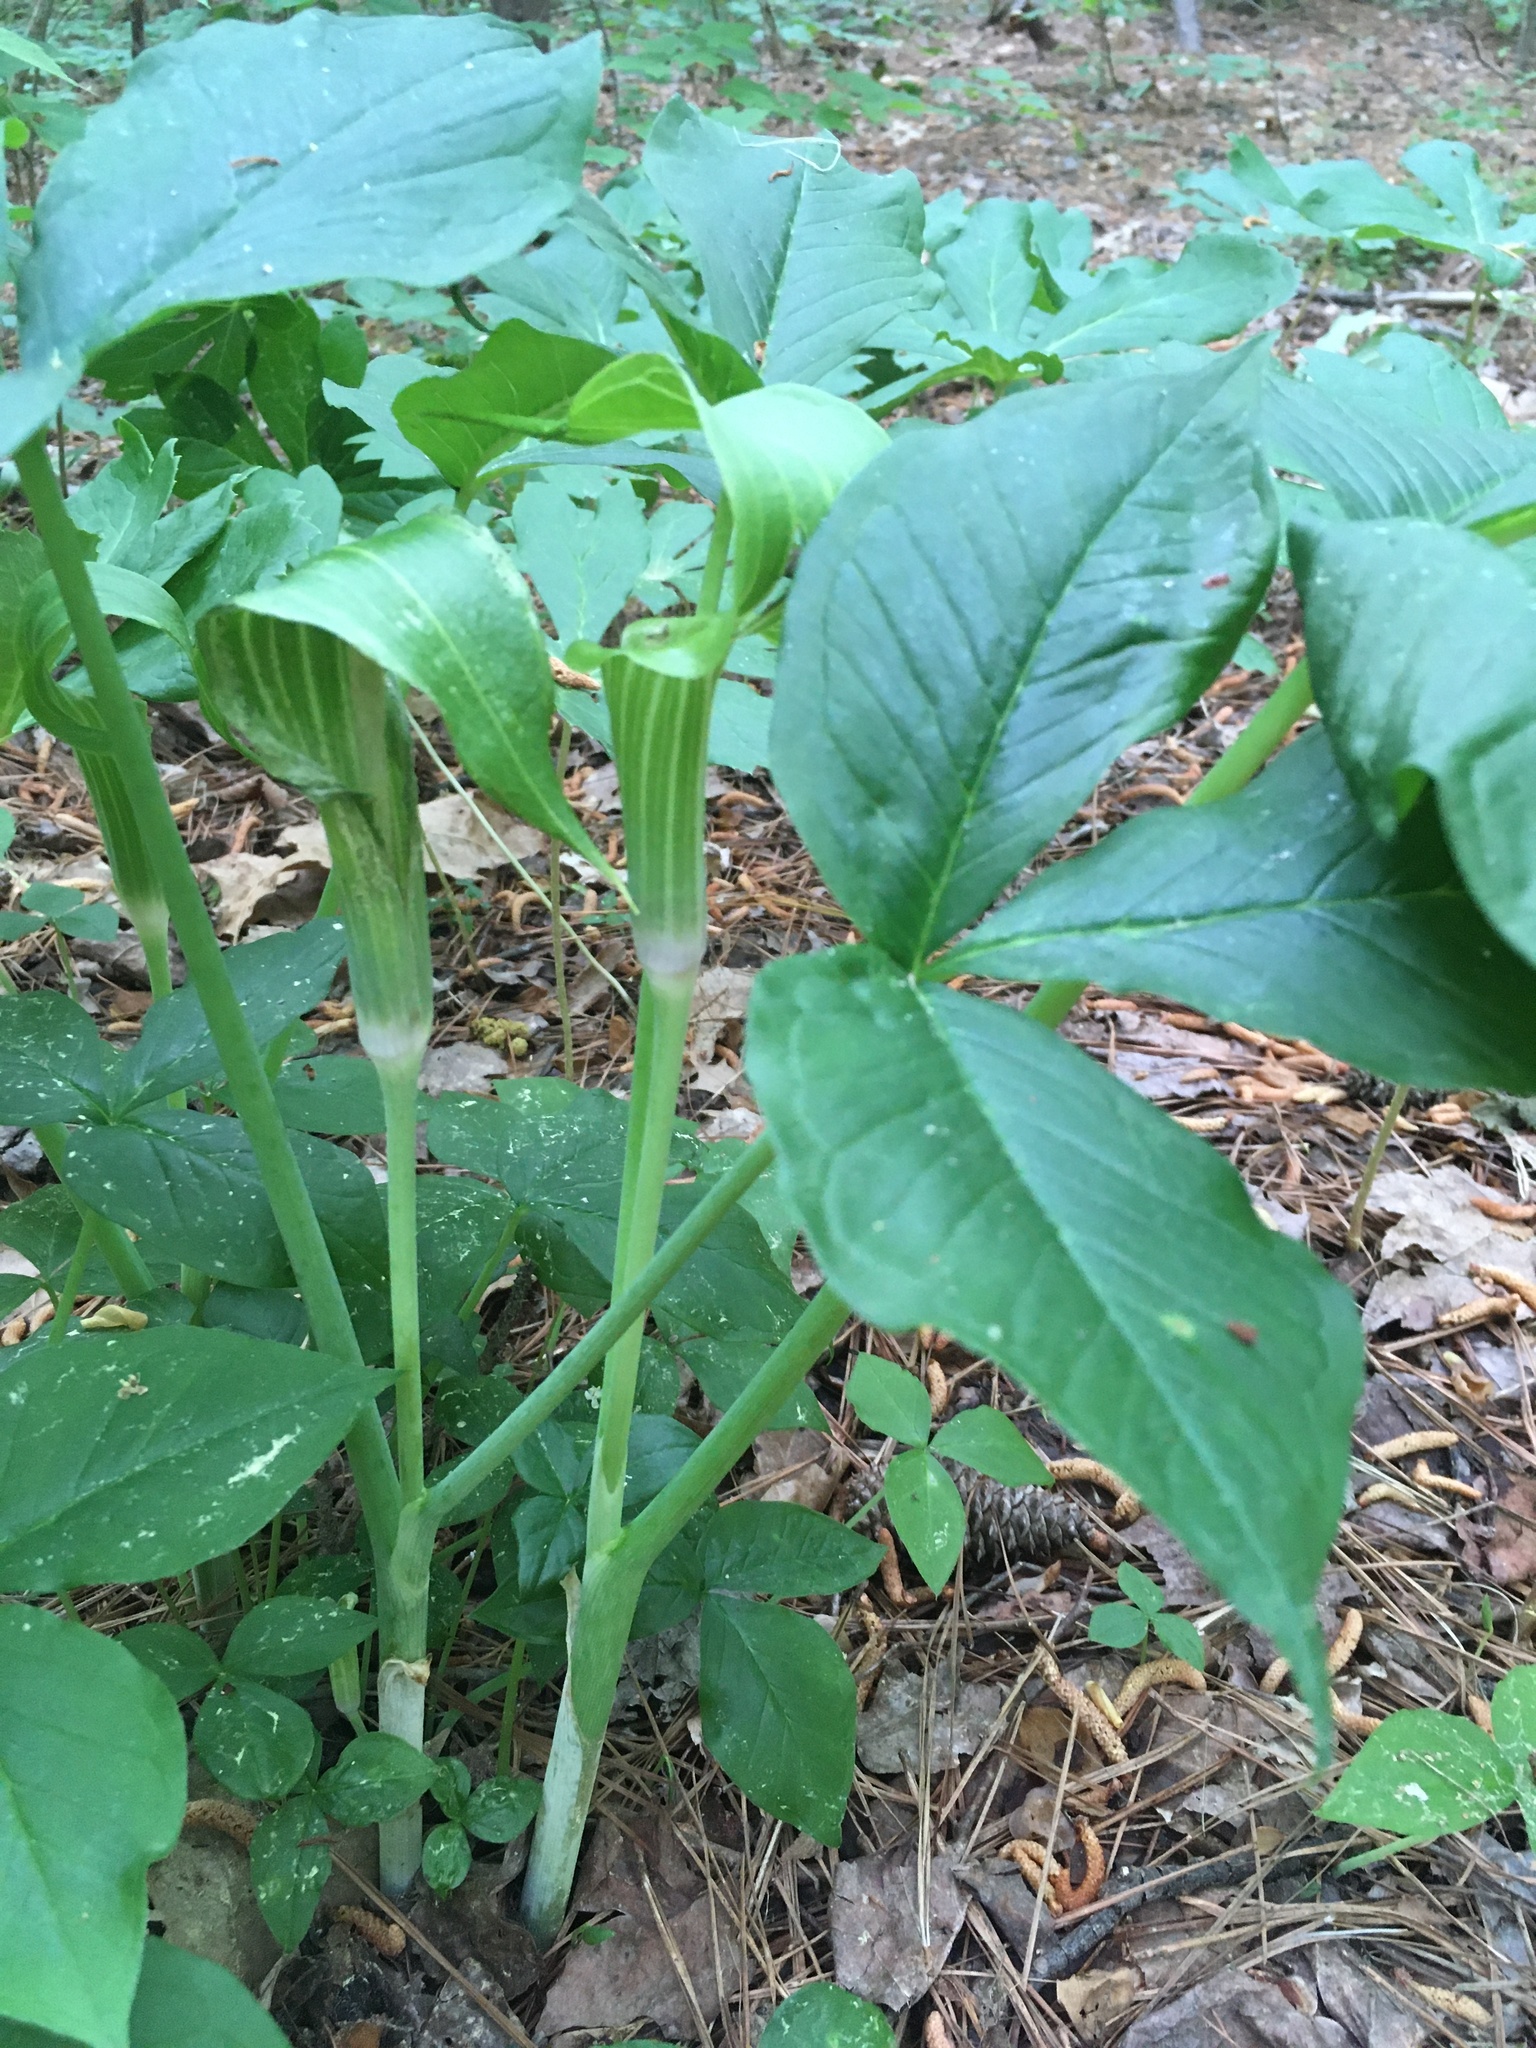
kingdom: Plantae
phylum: Tracheophyta
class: Liliopsida
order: Alismatales
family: Araceae
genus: Arisaema
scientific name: Arisaema triphyllum
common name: Jack-in-the-pulpit
